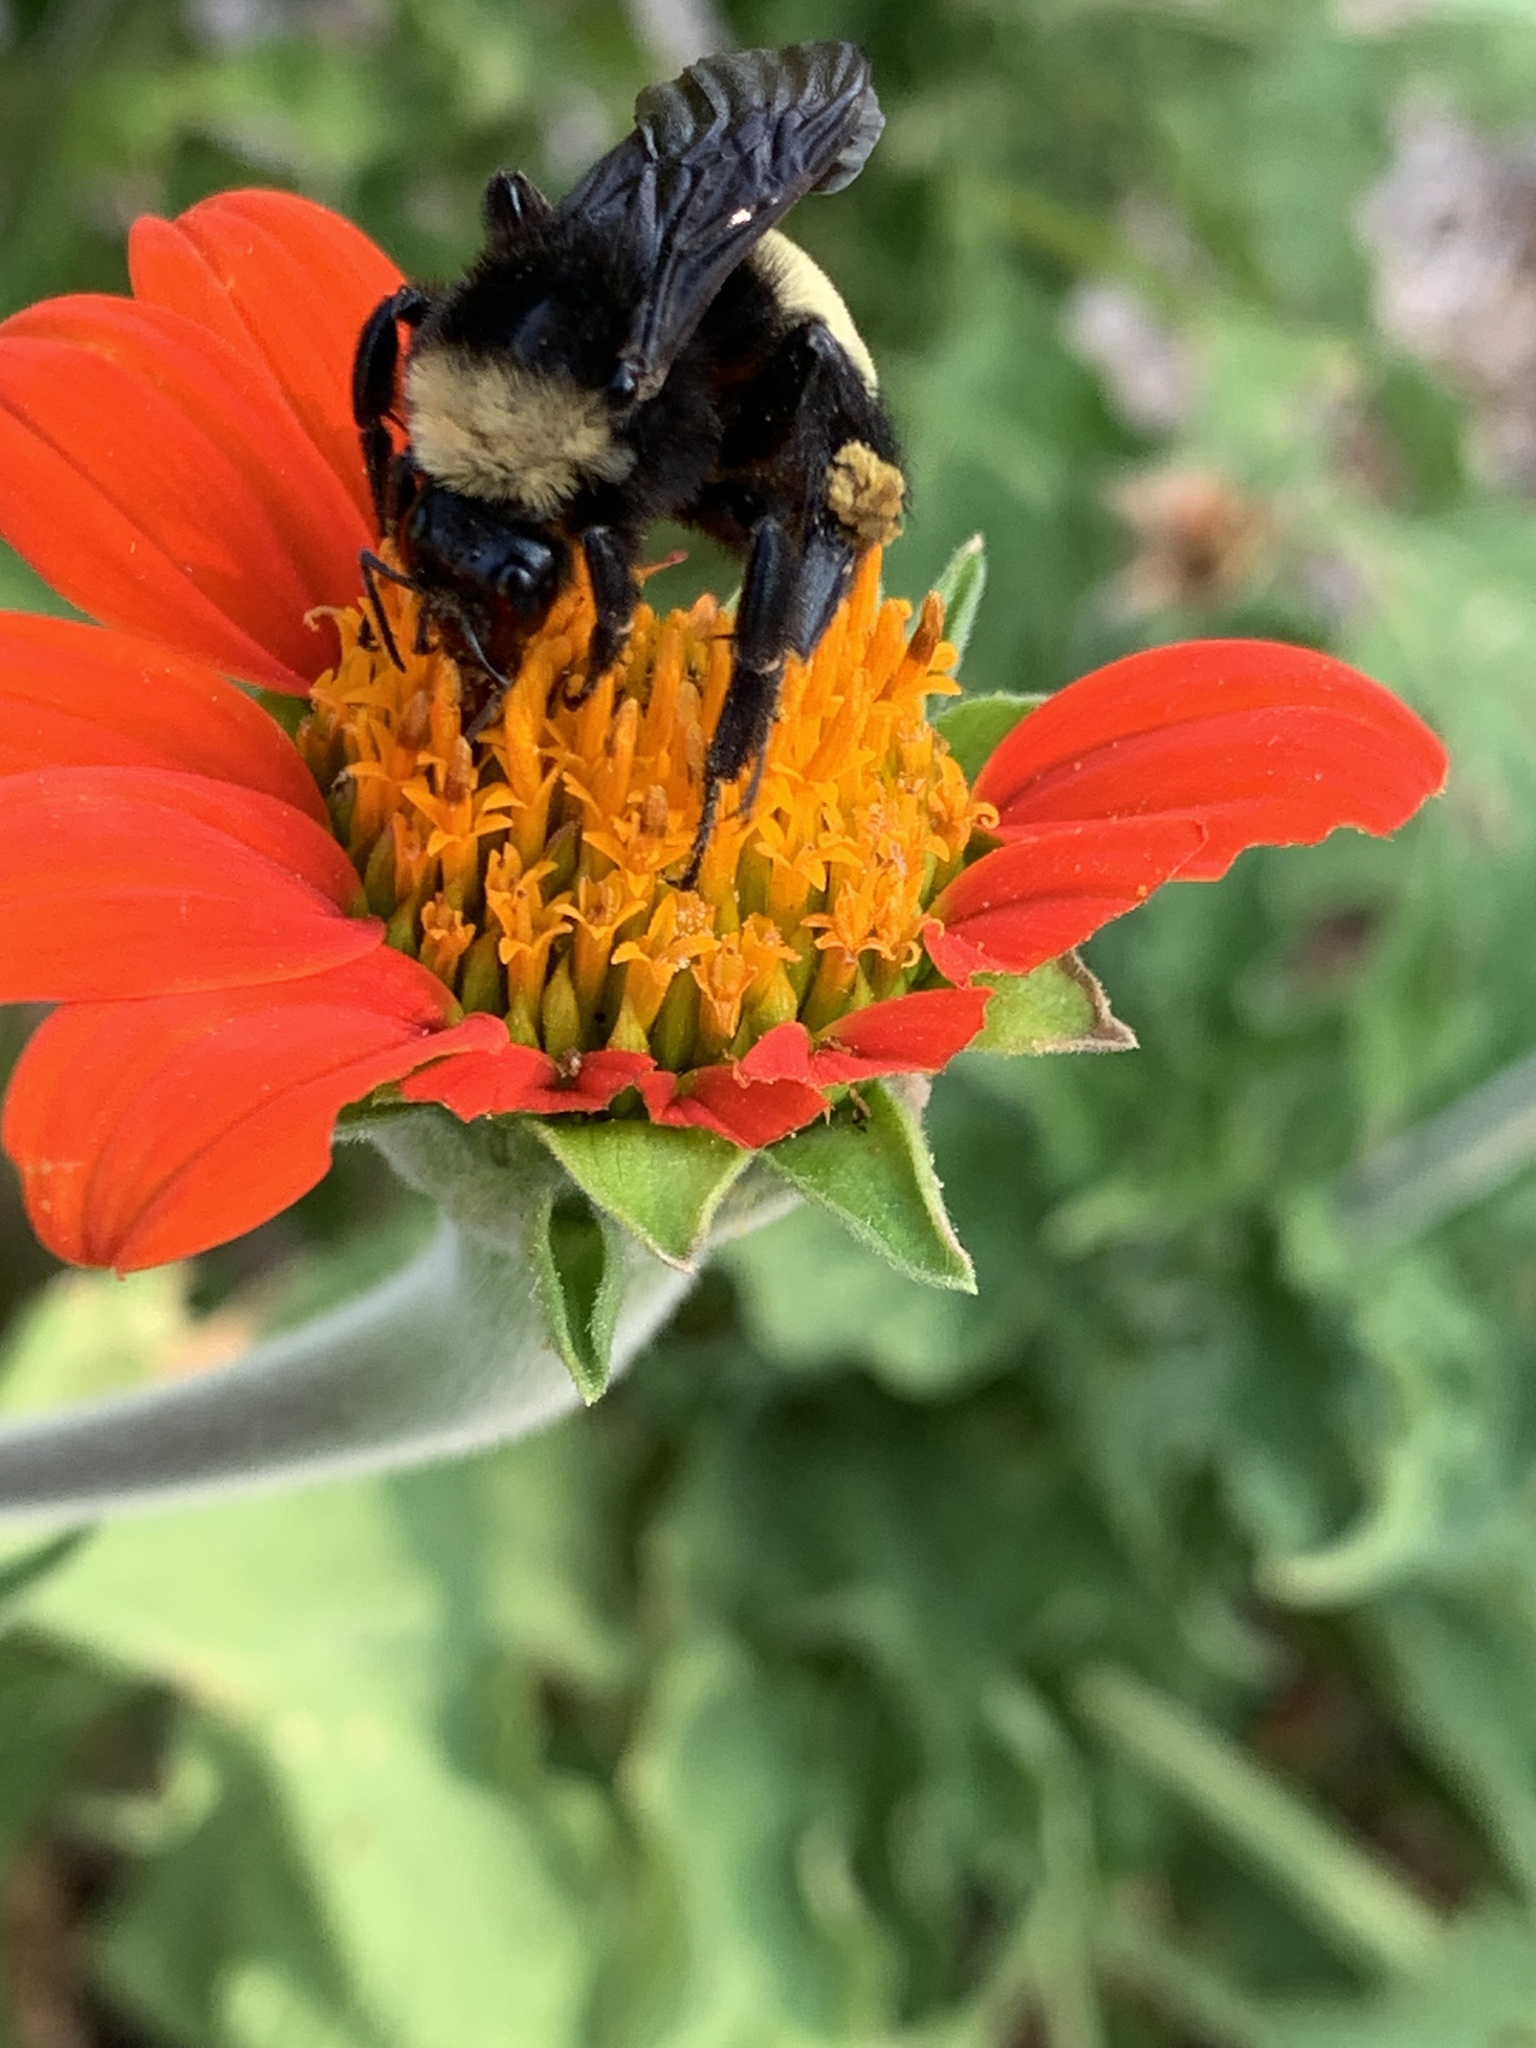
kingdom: Animalia
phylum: Arthropoda
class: Insecta
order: Hymenoptera
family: Apidae
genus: Bombus
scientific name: Bombus pensylvanicus
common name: Bumble bee
